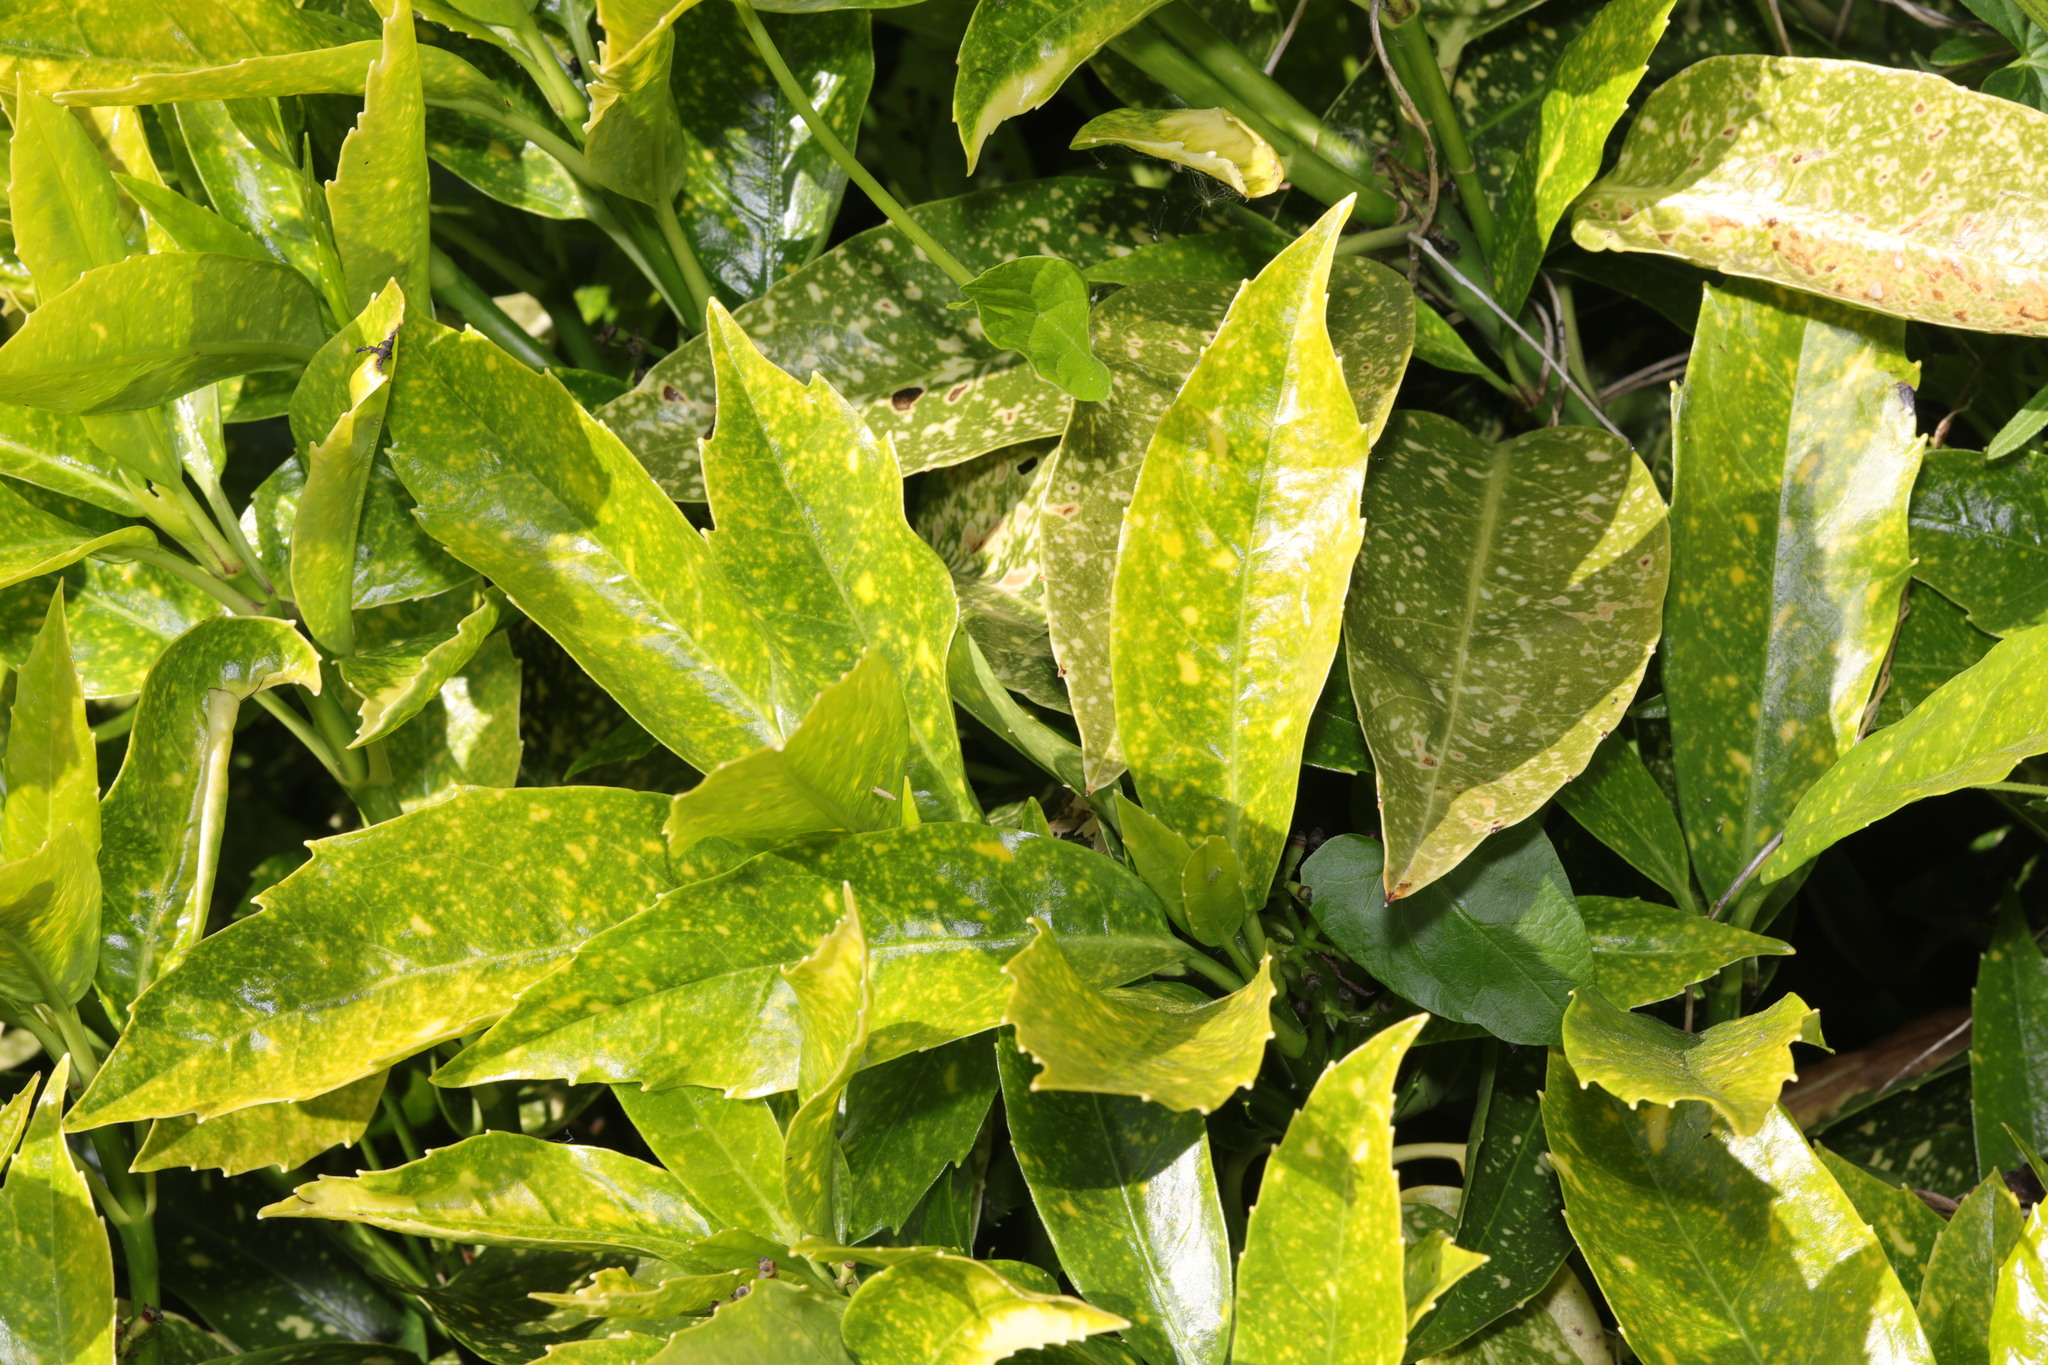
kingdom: Plantae
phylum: Tracheophyta
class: Magnoliopsida
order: Garryales
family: Garryaceae
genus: Aucuba
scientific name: Aucuba japonica
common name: Spotted-laurel
